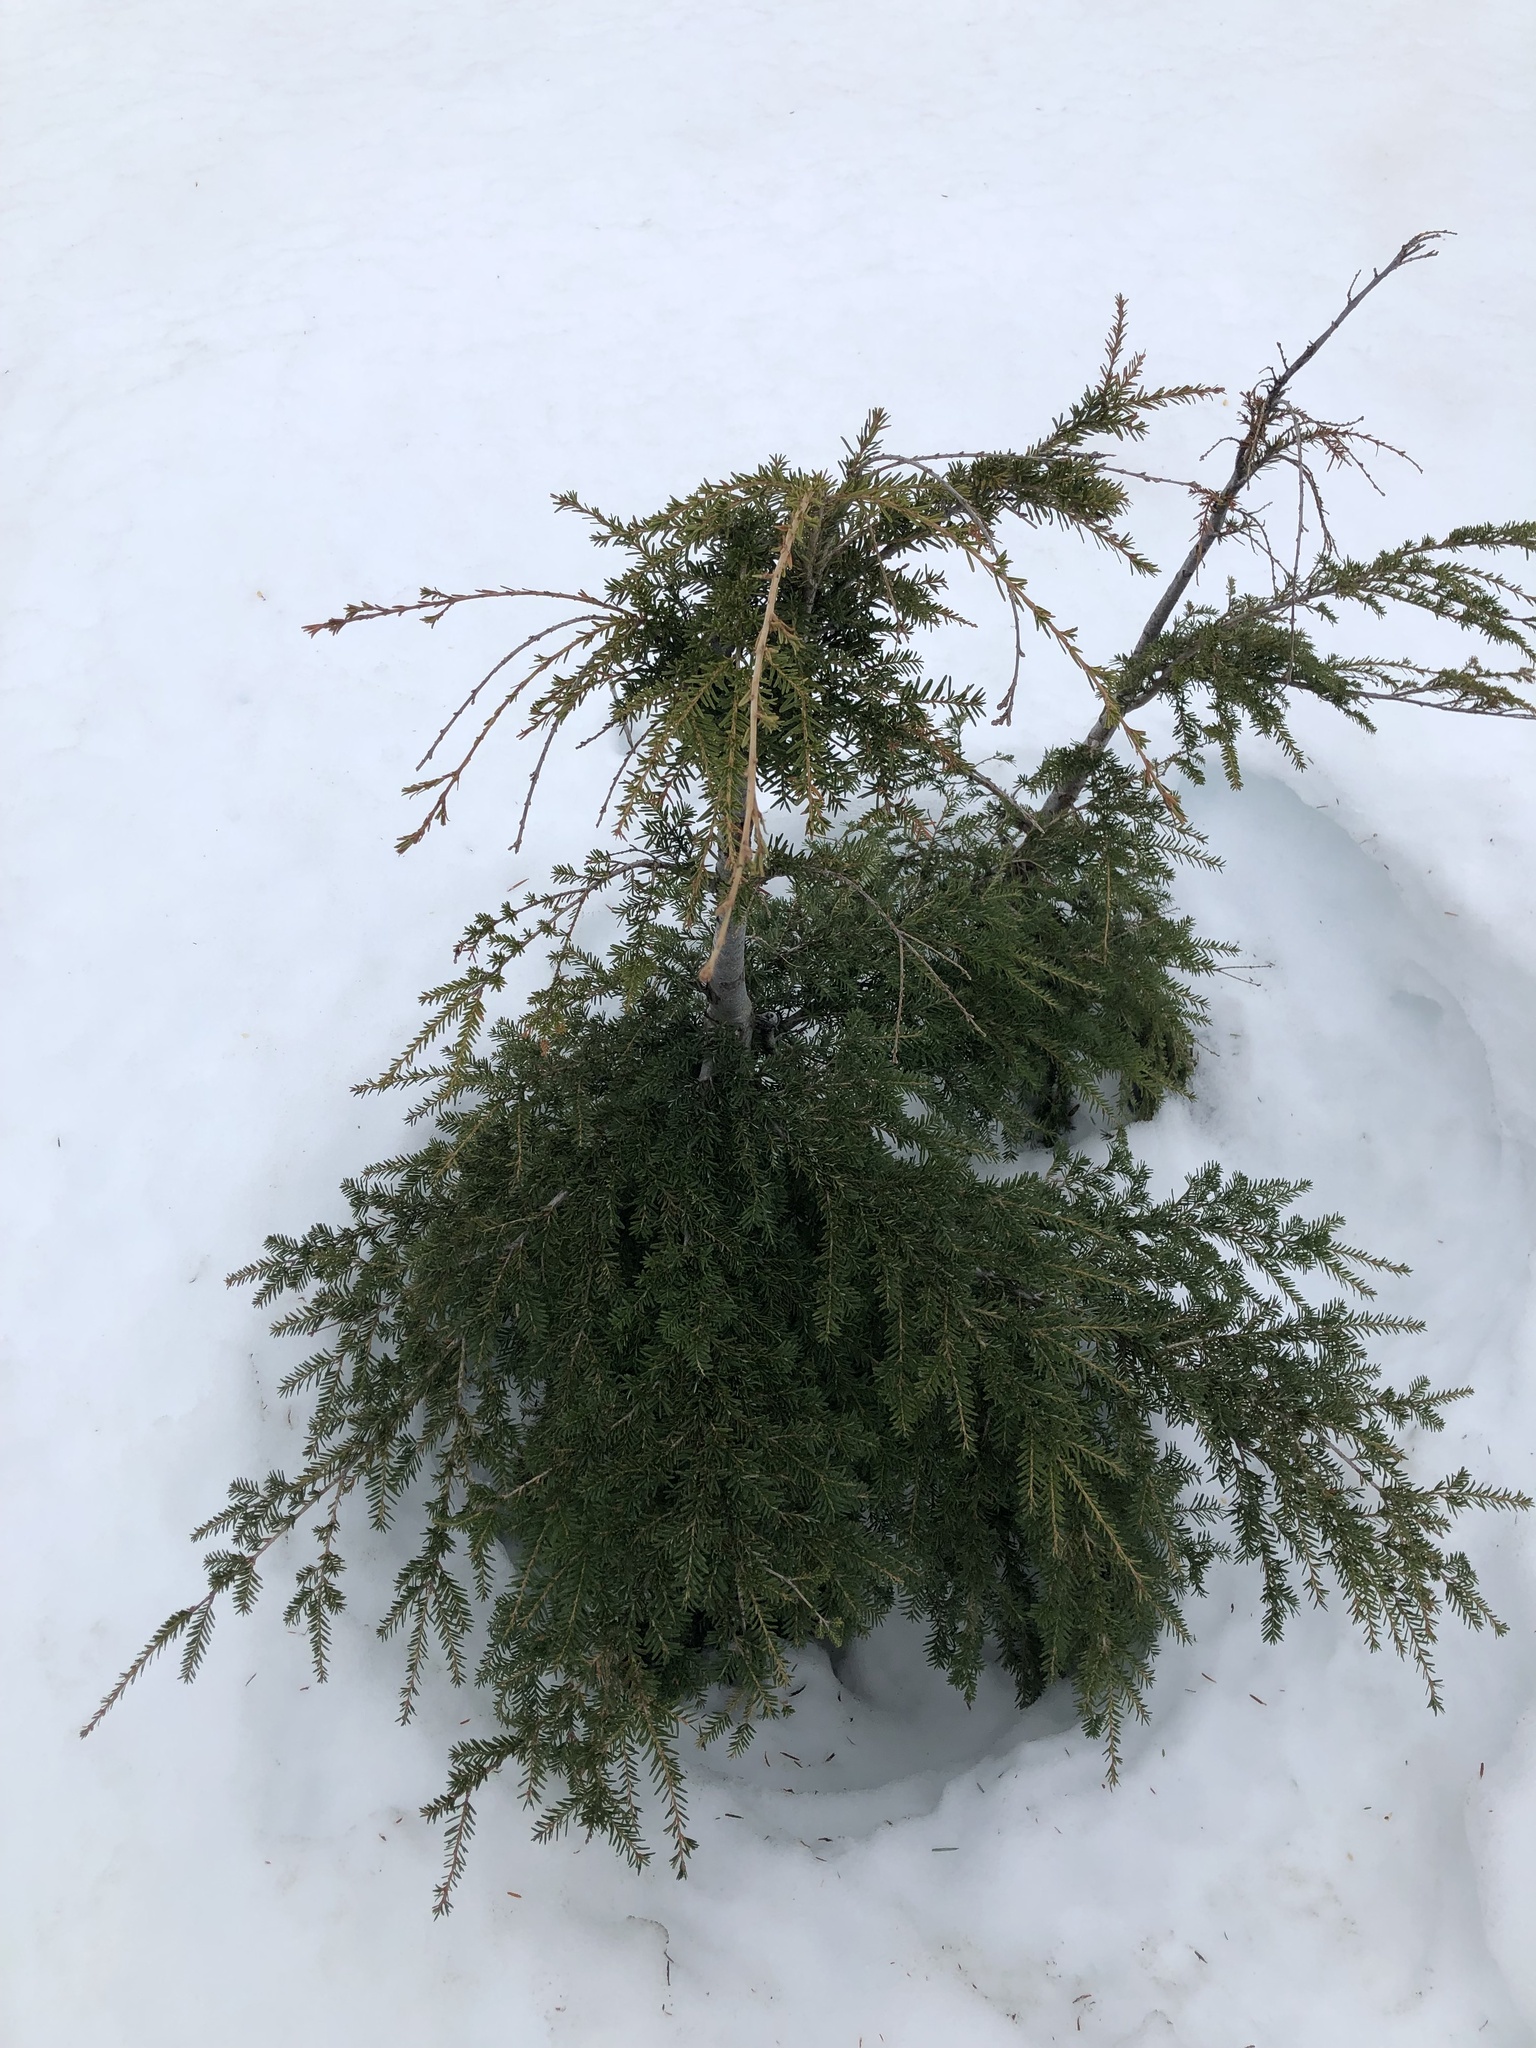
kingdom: Plantae
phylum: Tracheophyta
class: Pinopsida
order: Pinales
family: Pinaceae
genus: Tsuga
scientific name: Tsuga heterophylla
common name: Western hemlock
